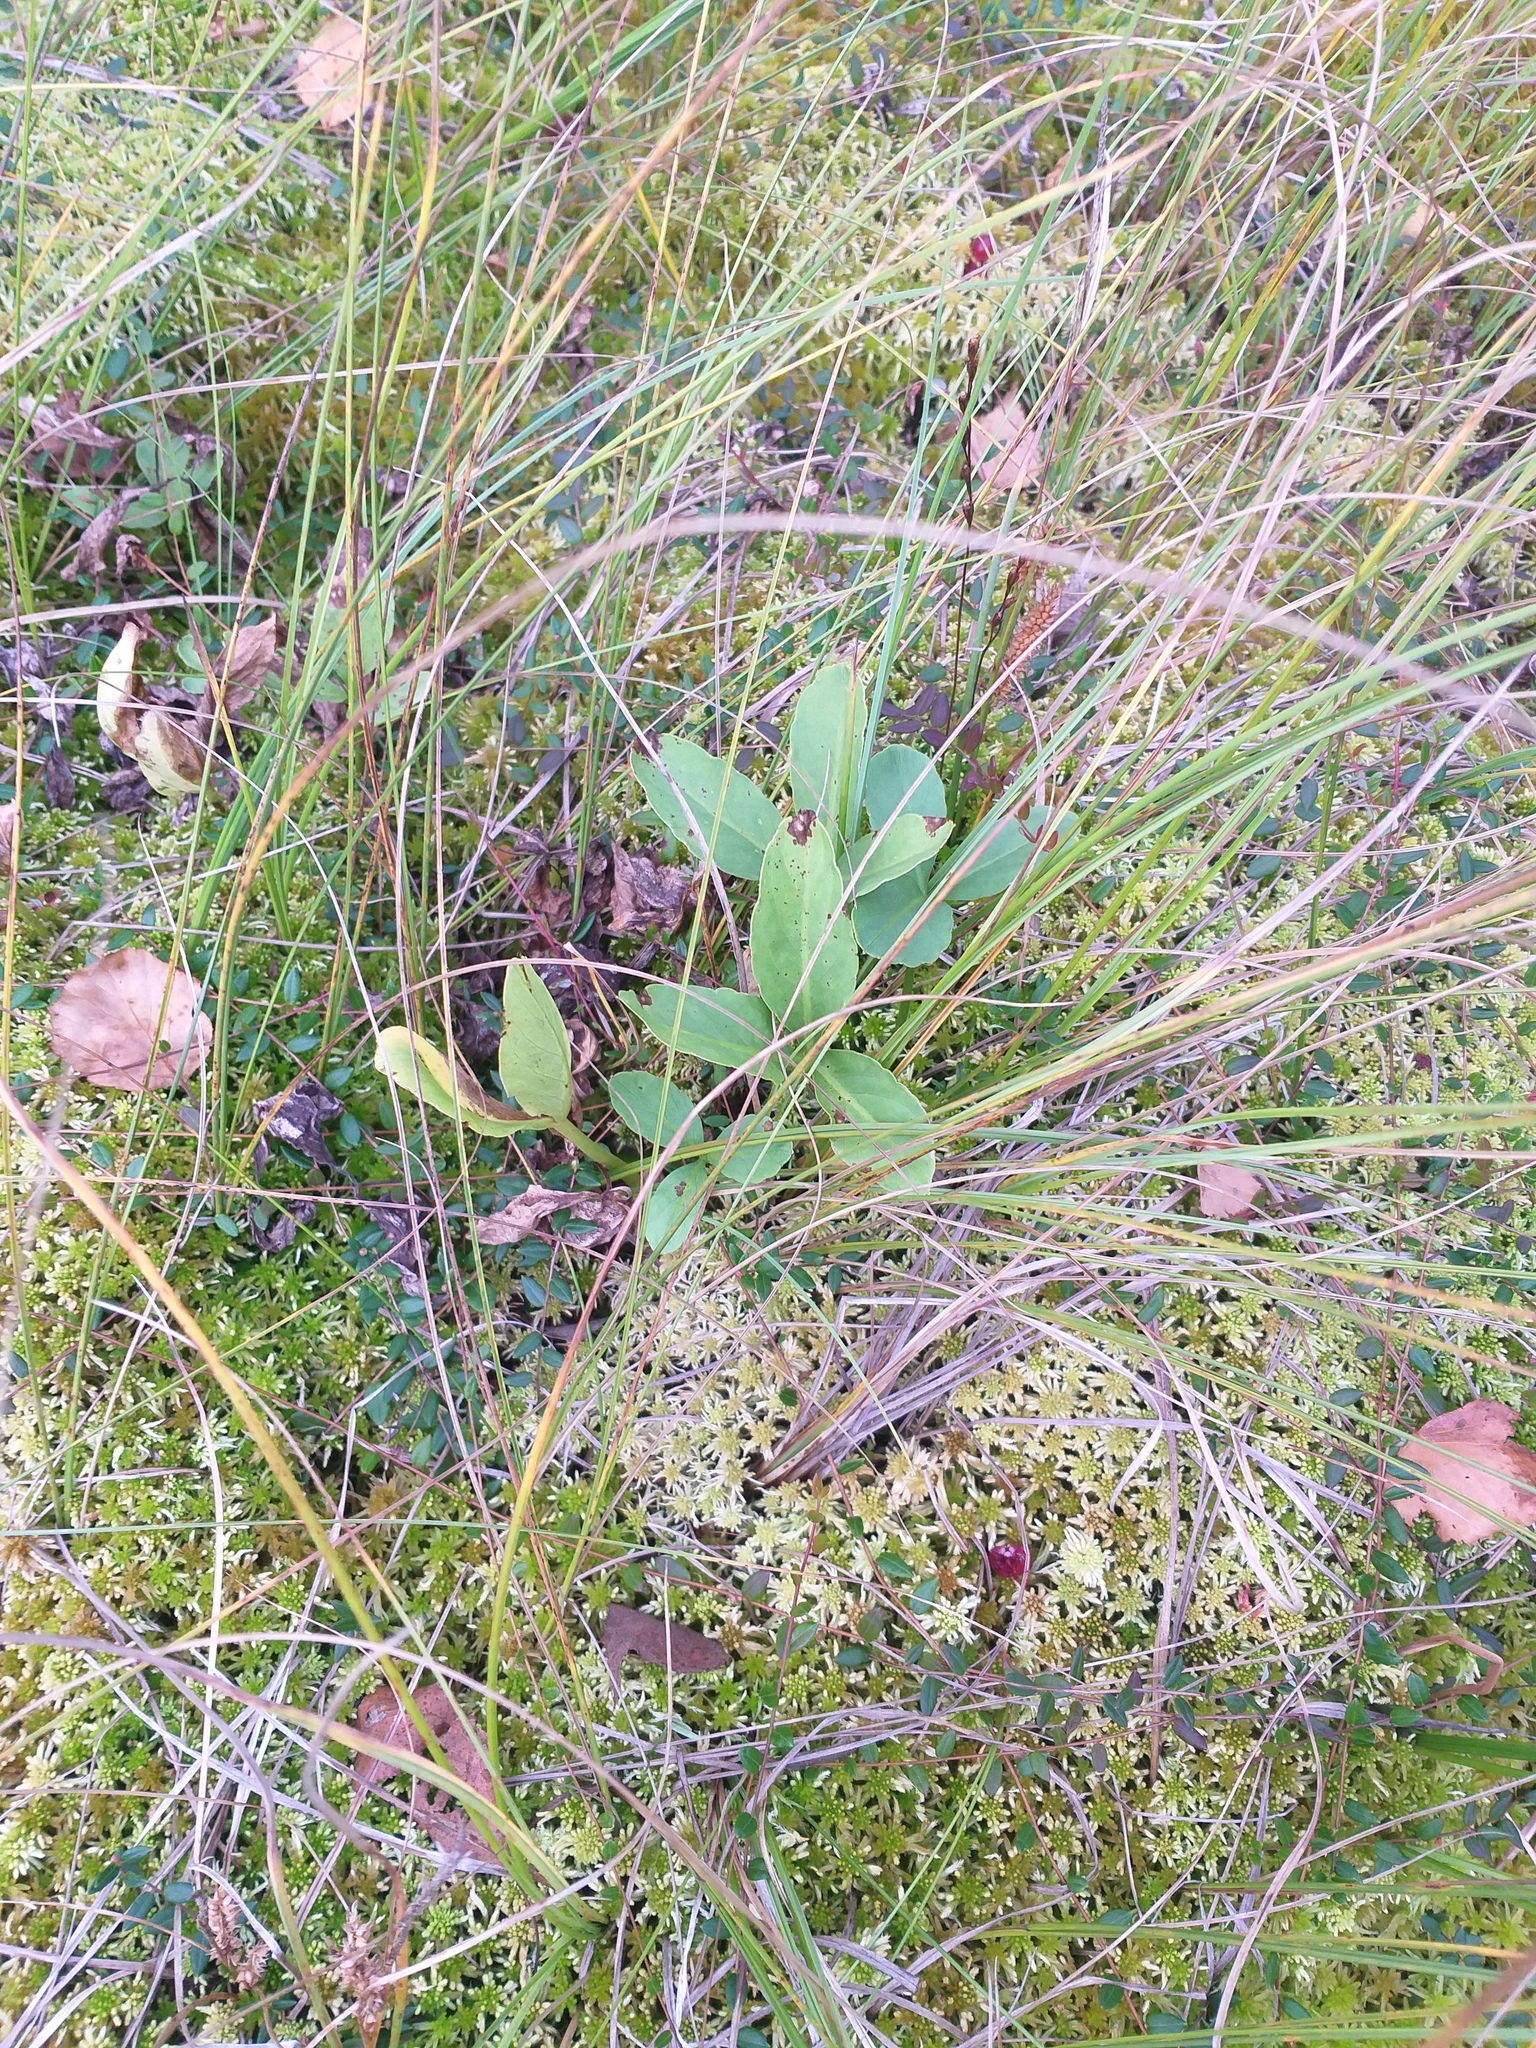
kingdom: Plantae
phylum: Tracheophyta
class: Magnoliopsida
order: Asterales
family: Menyanthaceae
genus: Menyanthes
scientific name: Menyanthes trifoliata
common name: Bogbean
